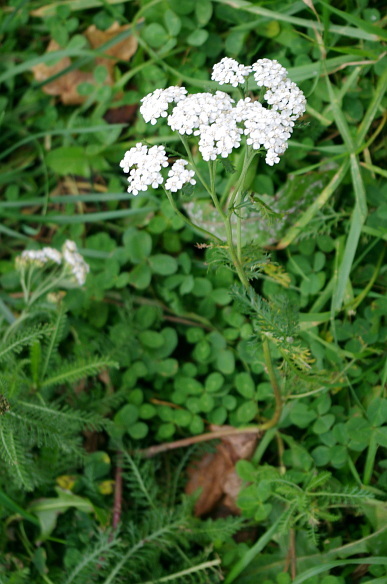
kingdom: Plantae
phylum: Tracheophyta
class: Magnoliopsida
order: Asterales
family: Asteraceae
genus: Achillea
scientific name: Achillea millefolium
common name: Yarrow
